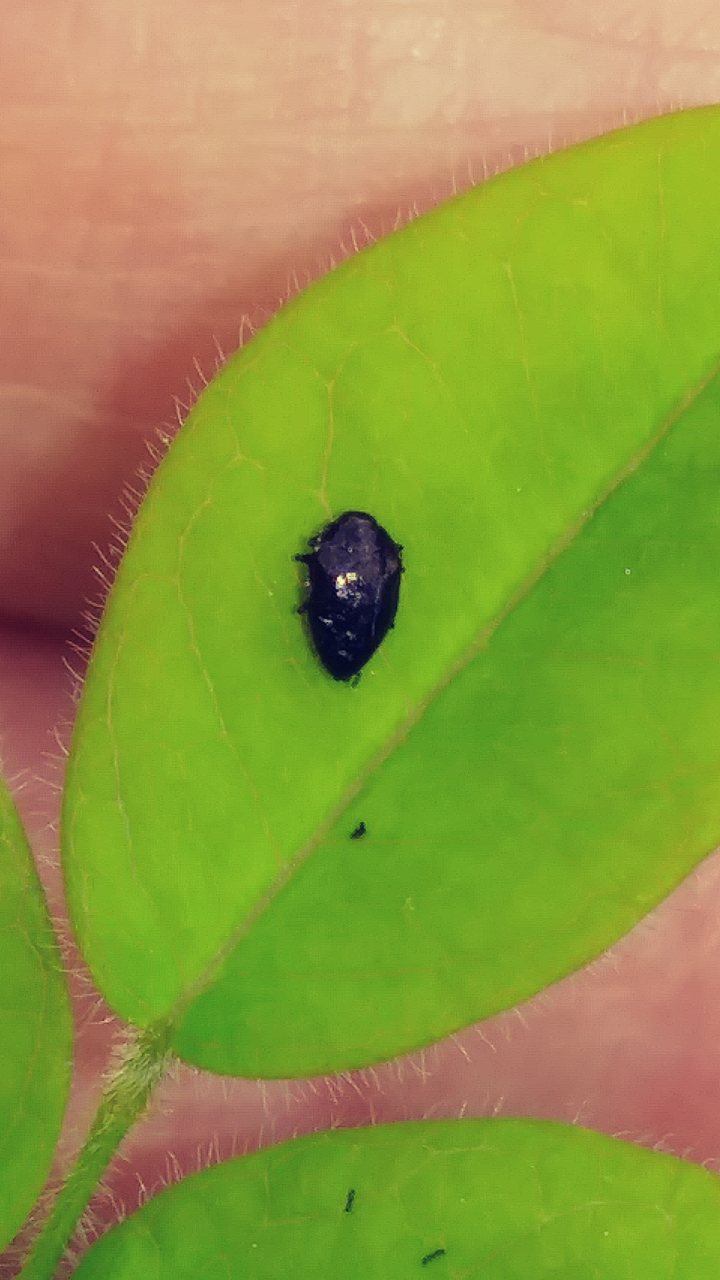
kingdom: Animalia
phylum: Arthropoda
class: Insecta
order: Coleoptera
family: Buprestidae
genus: Pachyschelus
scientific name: Pachyschelus laevigatus
